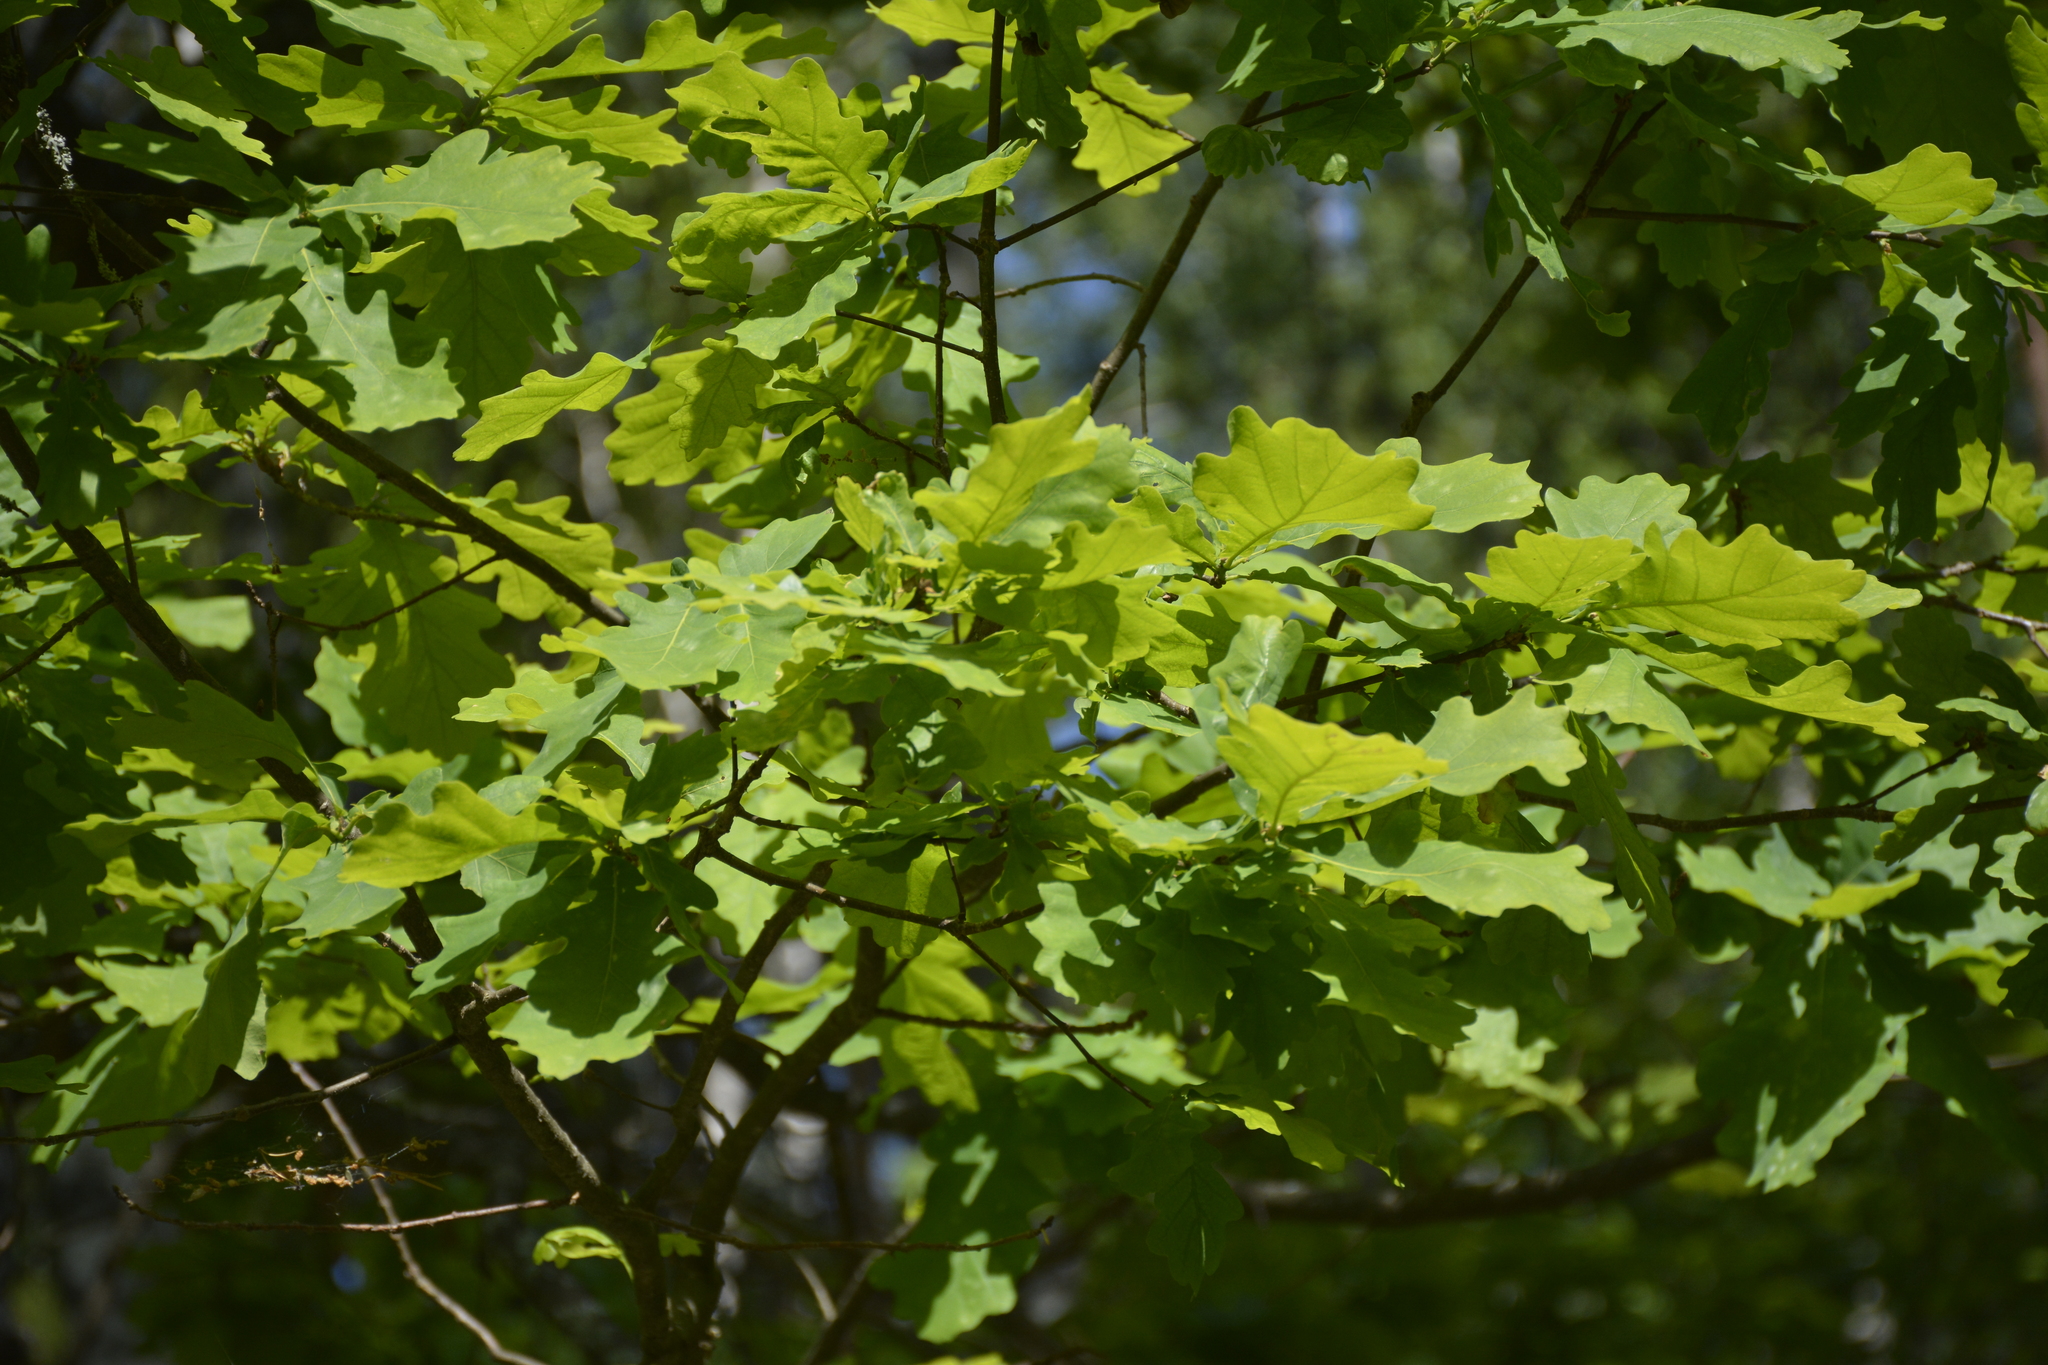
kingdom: Plantae
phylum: Tracheophyta
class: Magnoliopsida
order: Fagales
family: Fagaceae
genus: Quercus
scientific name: Quercus robur
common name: Pedunculate oak
